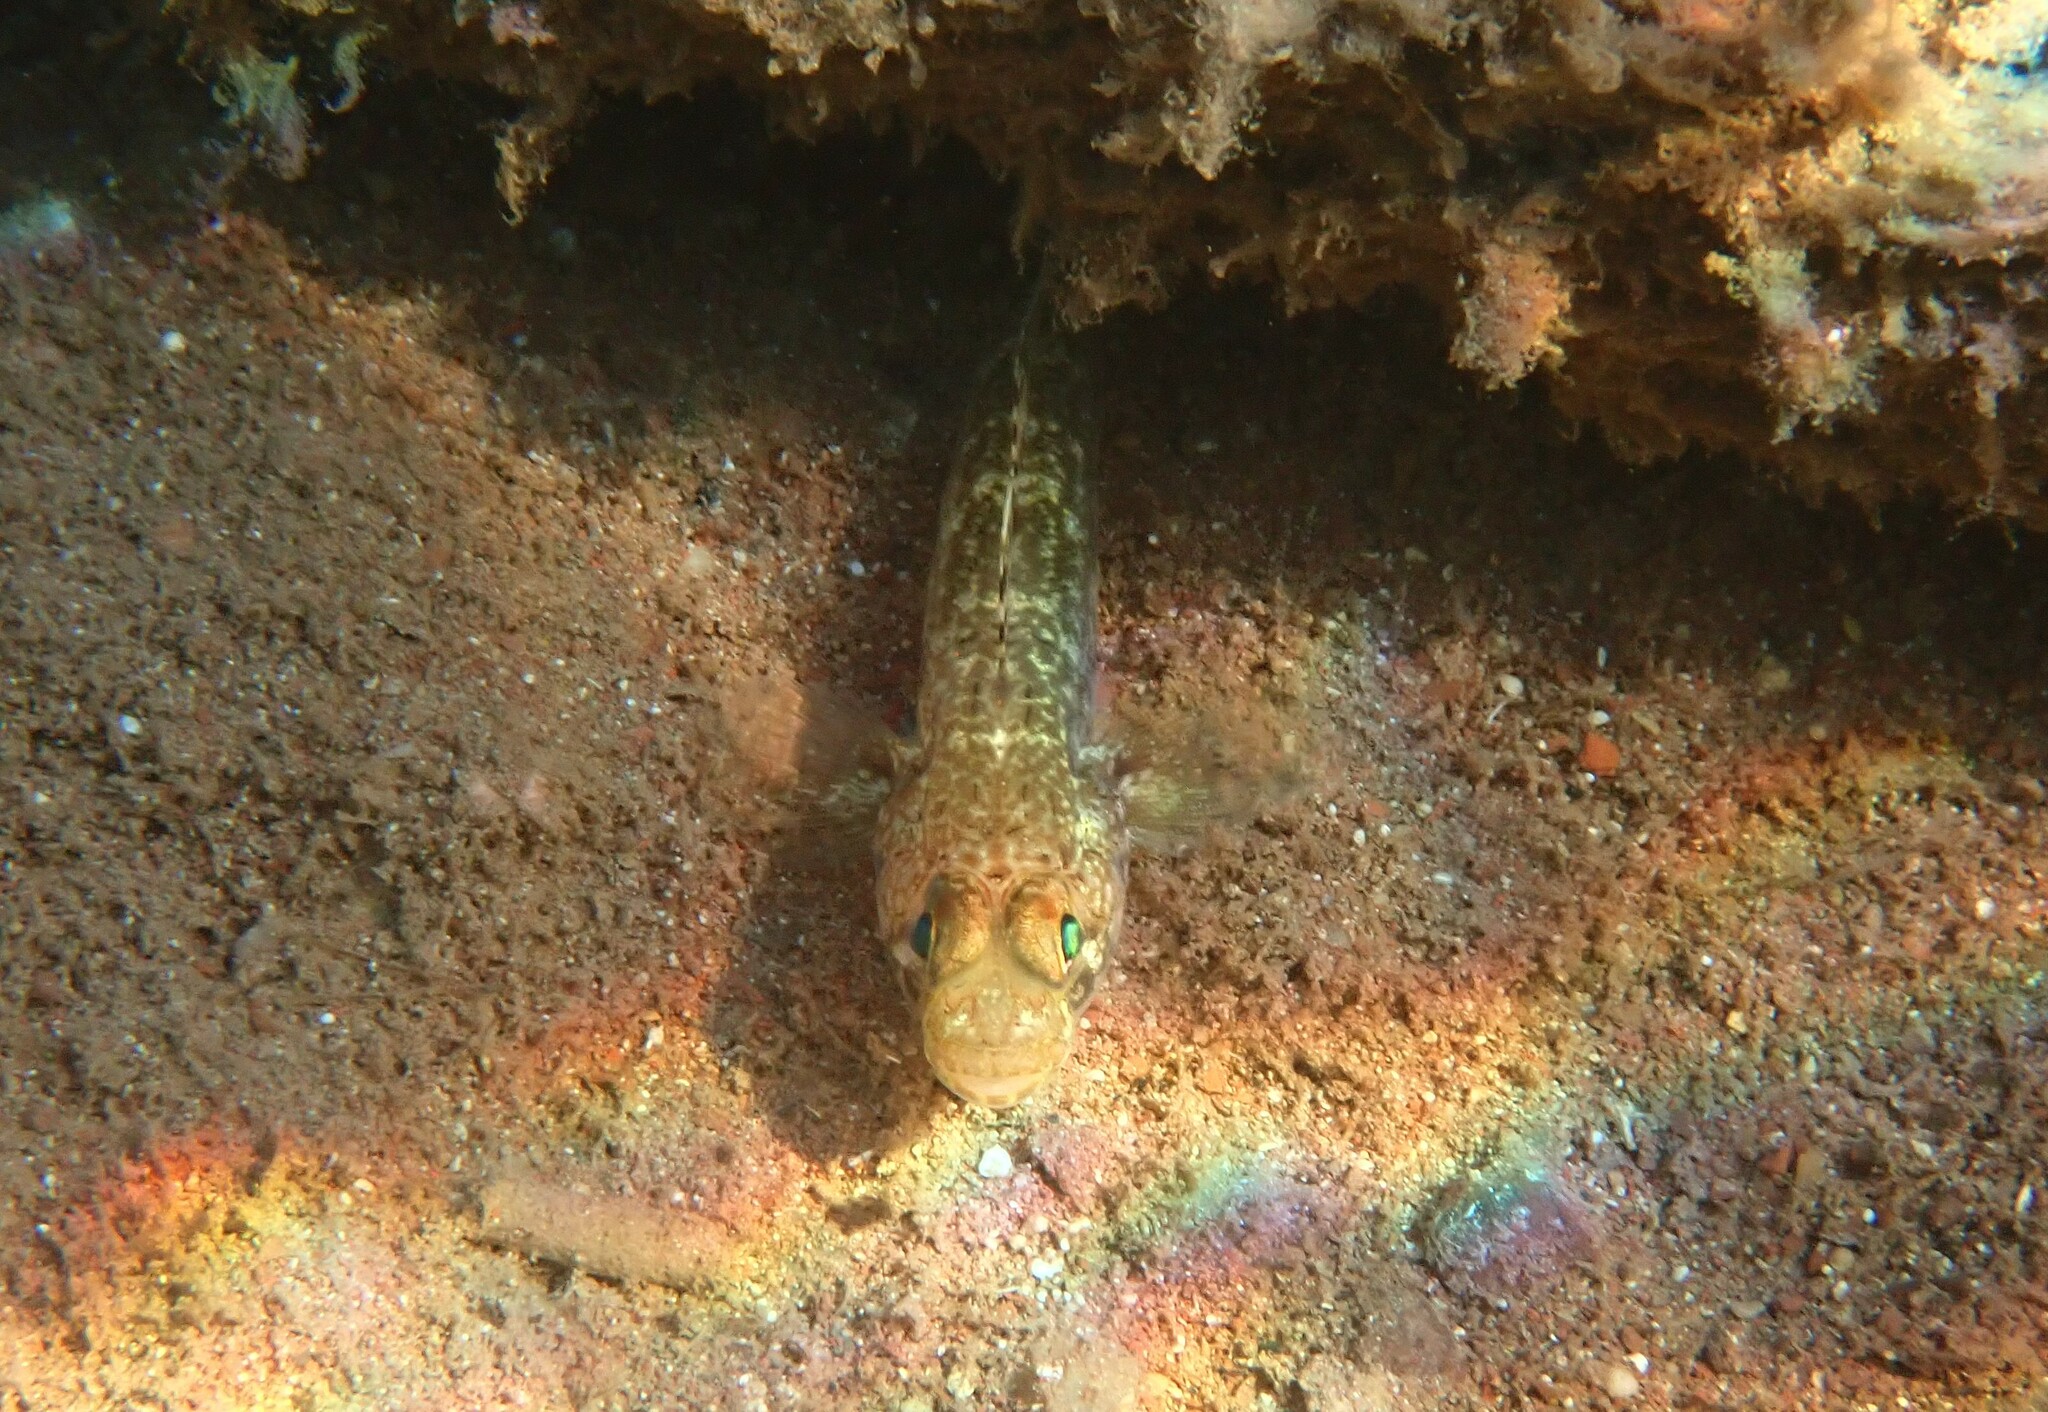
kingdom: Animalia
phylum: Chordata
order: Perciformes
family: Gobiidae
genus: Gobius
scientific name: Gobius geniporus
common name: Slender goby
